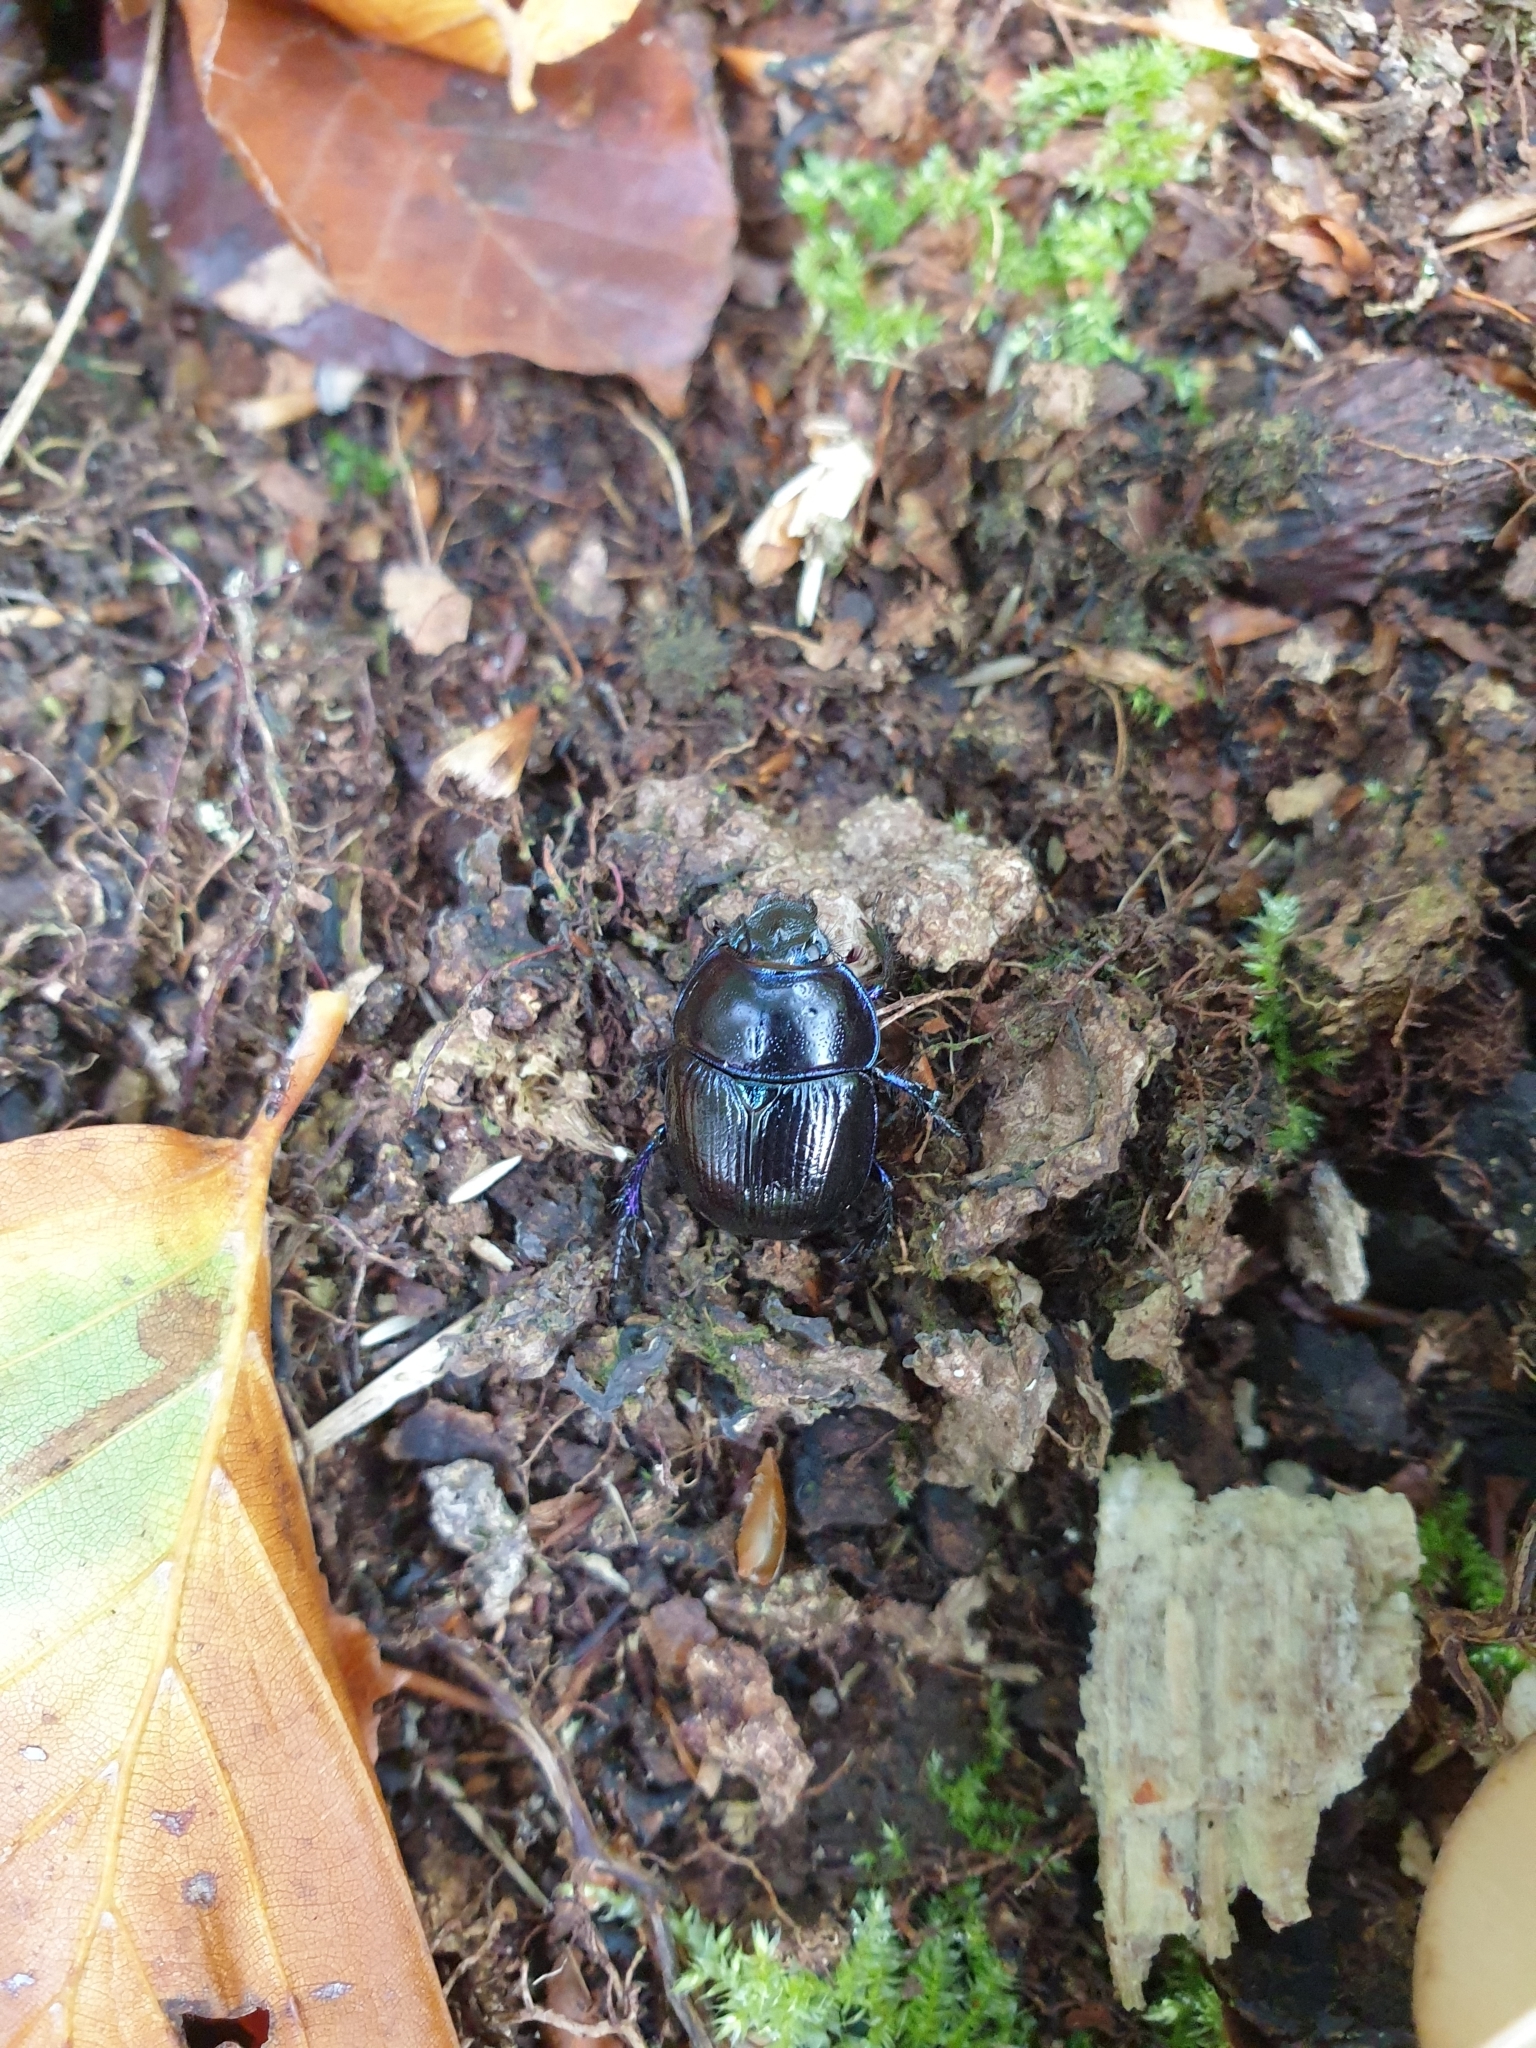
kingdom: Animalia
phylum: Arthropoda
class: Insecta
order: Coleoptera
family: Geotrupidae
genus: Anoplotrupes
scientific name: Anoplotrupes stercorosus
